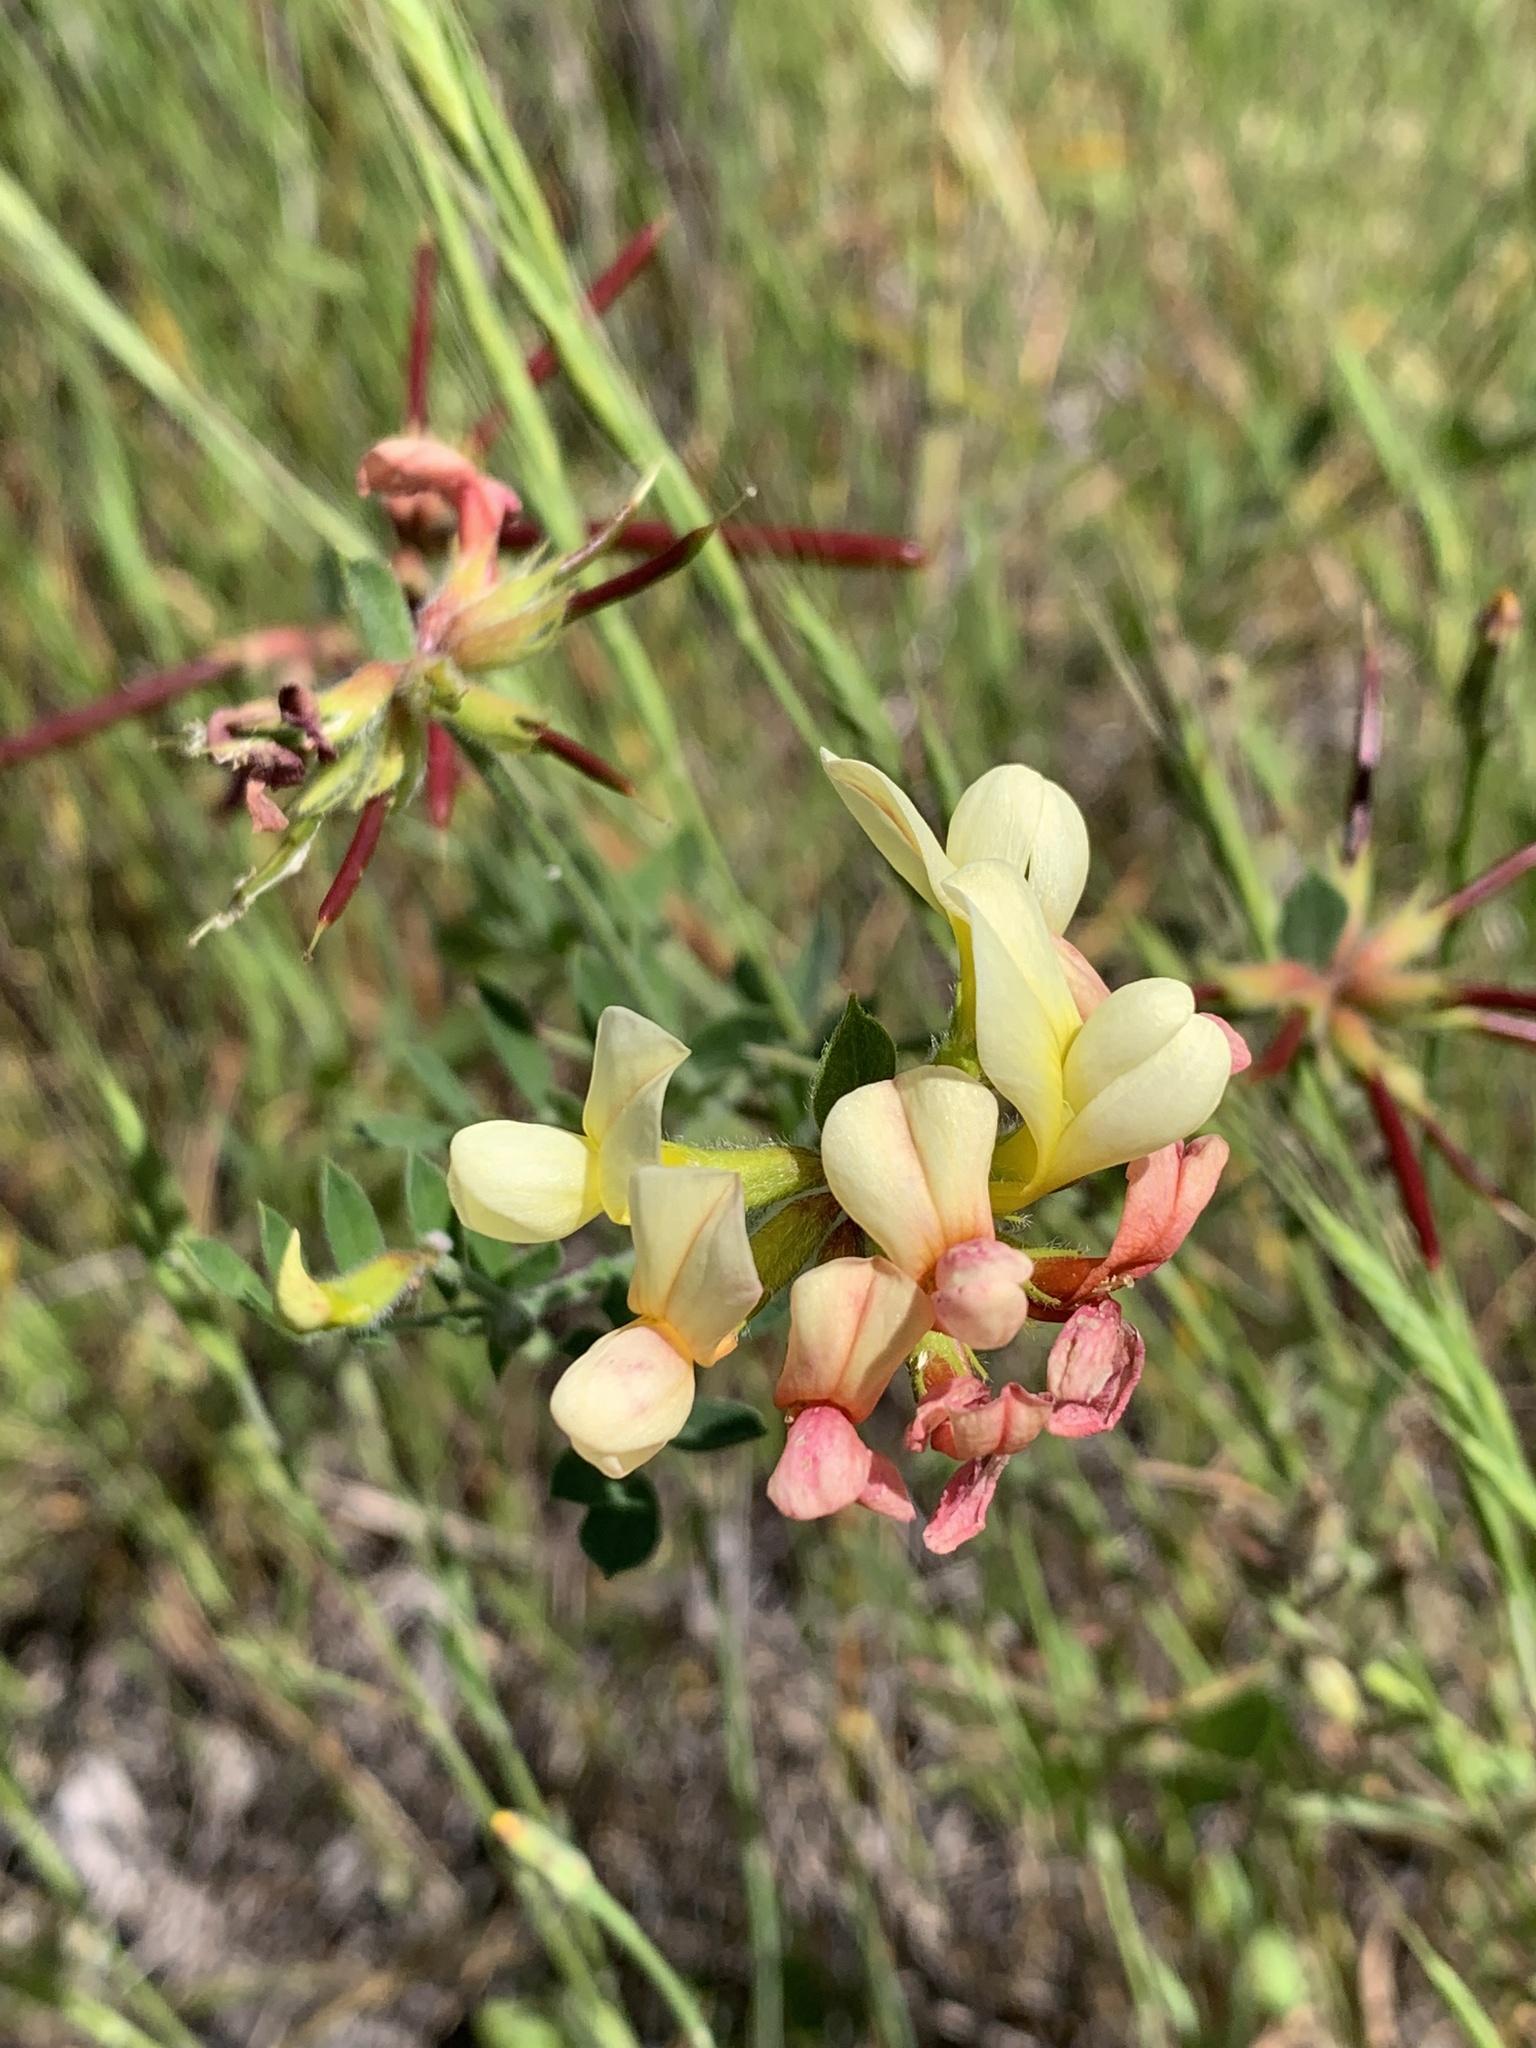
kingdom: Plantae
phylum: Tracheophyta
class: Magnoliopsida
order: Fabales
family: Fabaceae
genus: Acmispon
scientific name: Acmispon grandiflorus
